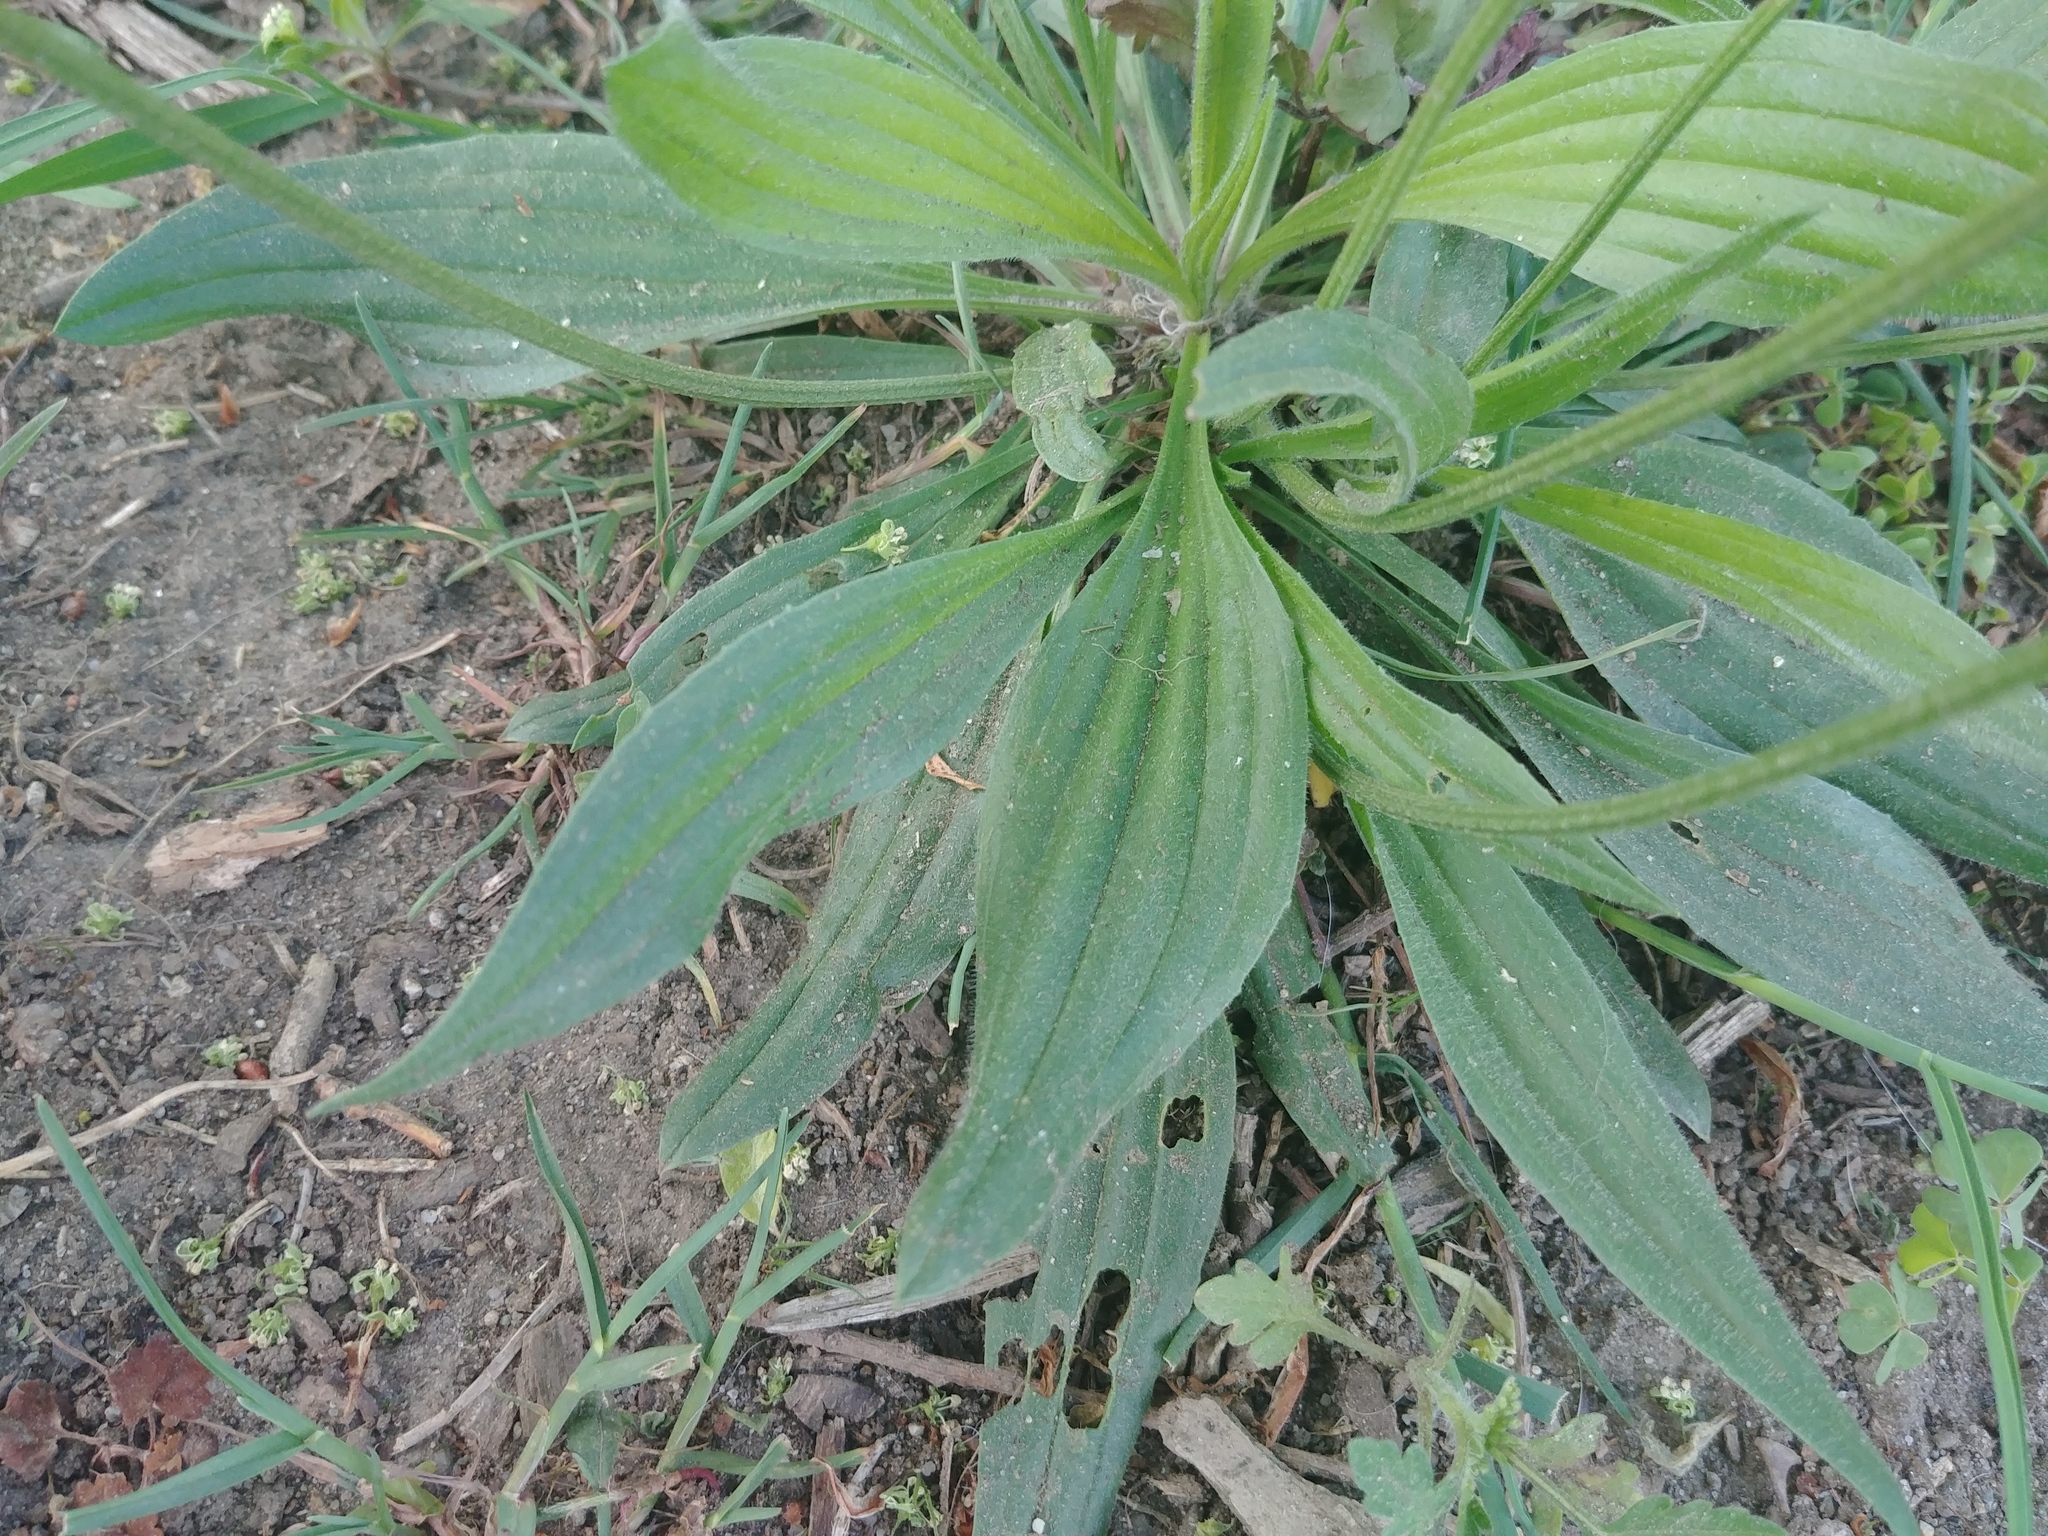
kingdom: Plantae
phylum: Tracheophyta
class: Magnoliopsida
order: Lamiales
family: Plantaginaceae
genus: Plantago
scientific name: Plantago lanceolata
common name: Ribwort plantain
